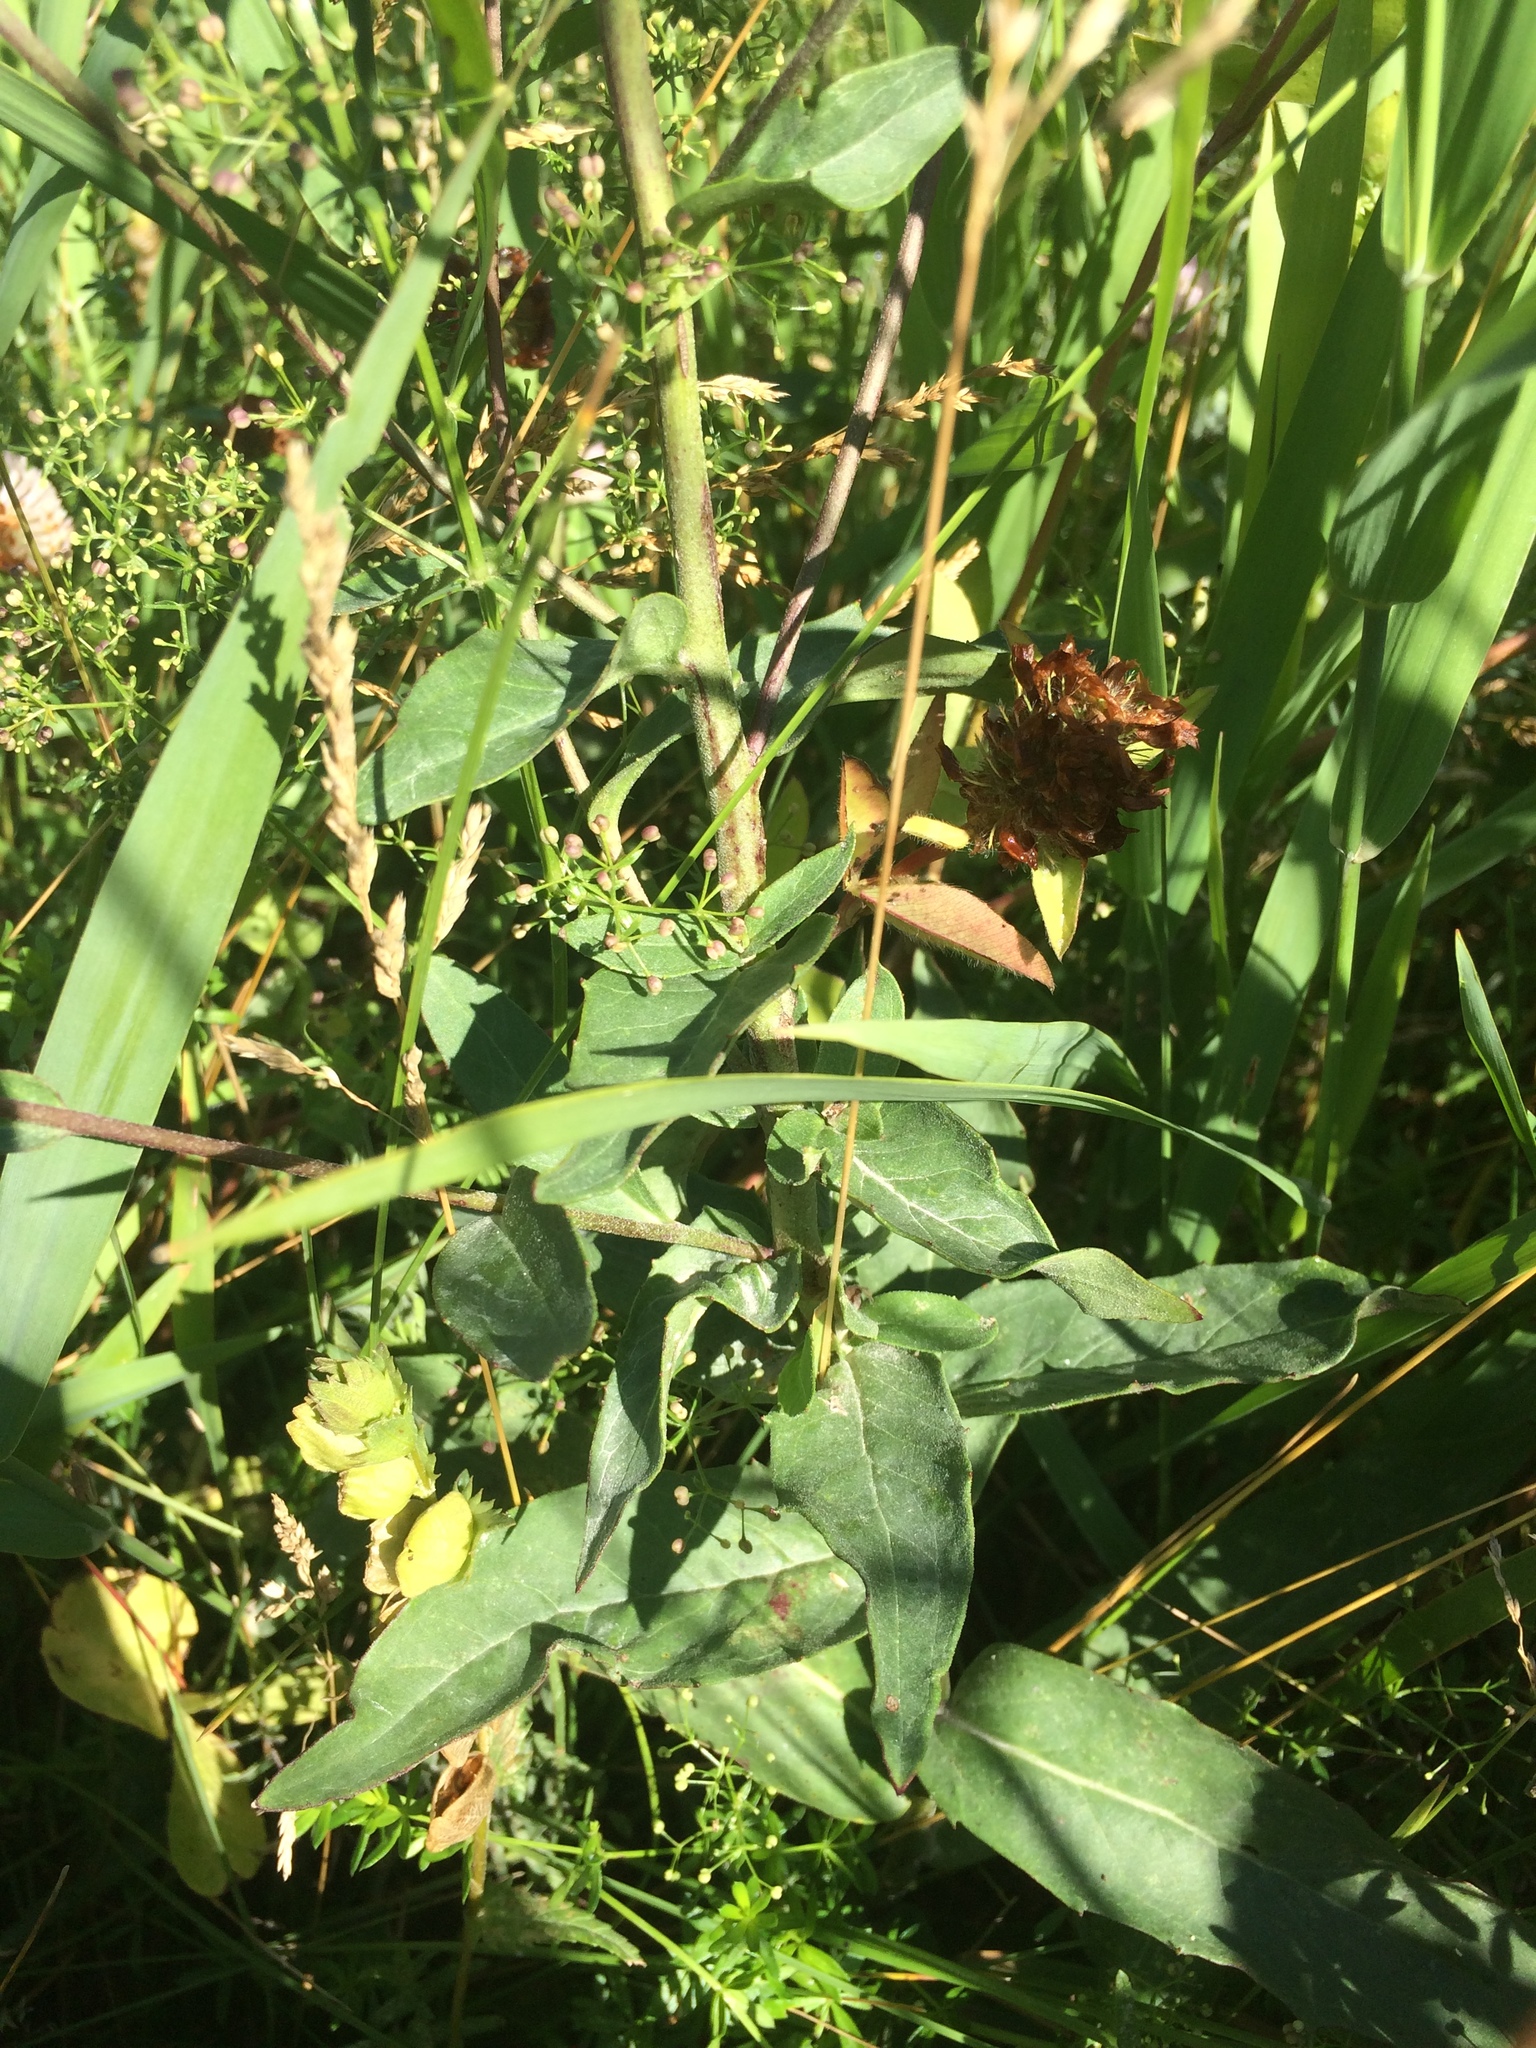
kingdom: Plantae
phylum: Tracheophyta
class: Magnoliopsida
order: Asterales
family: Asteraceae
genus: Hieracium
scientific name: Hieracium umbellatum
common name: Northern hawkweed
